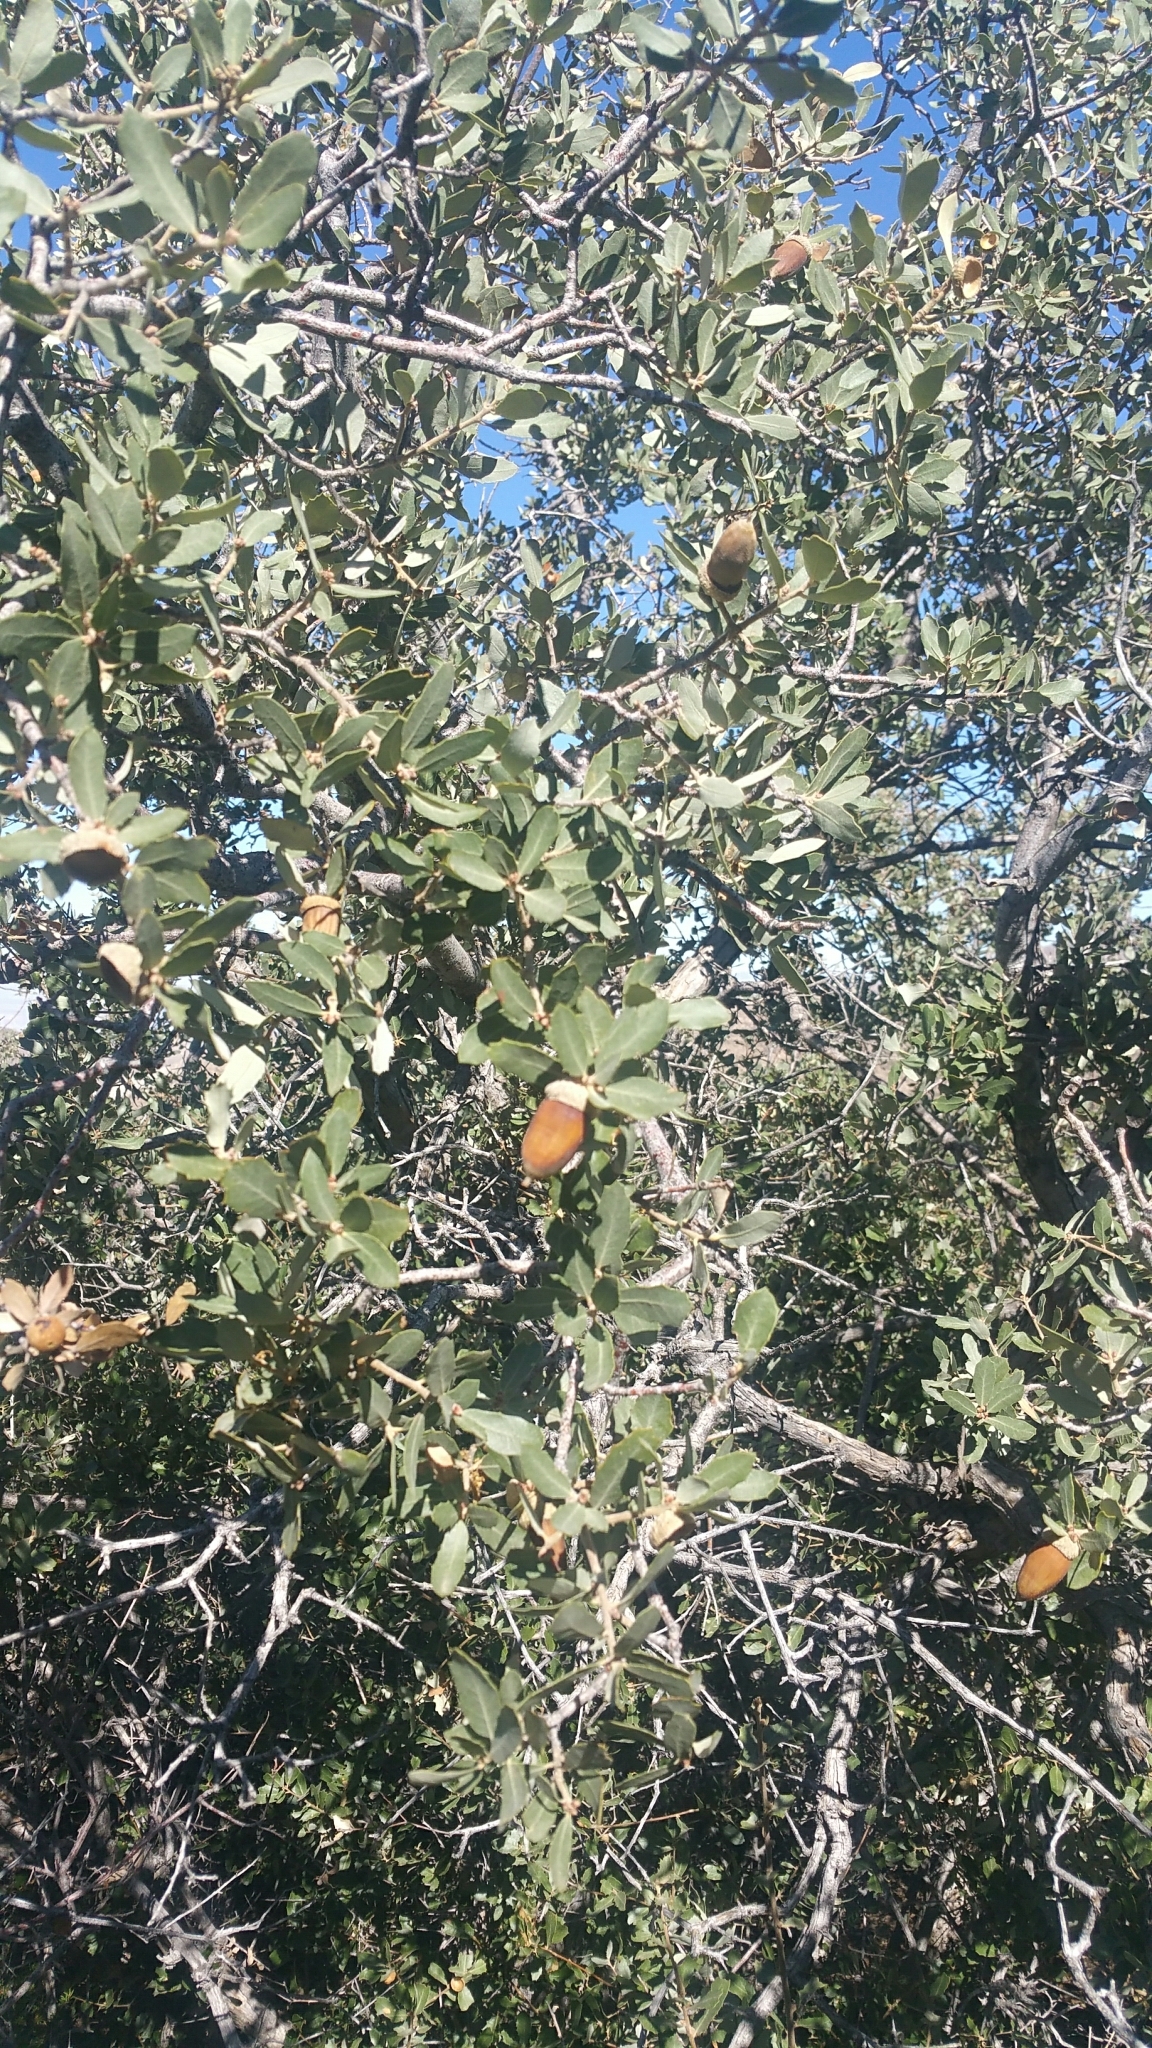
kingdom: Plantae
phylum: Tracheophyta
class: Magnoliopsida
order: Fagales
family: Fagaceae
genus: Quercus
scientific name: Quercus cornelius-mulleri
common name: Muller oak
